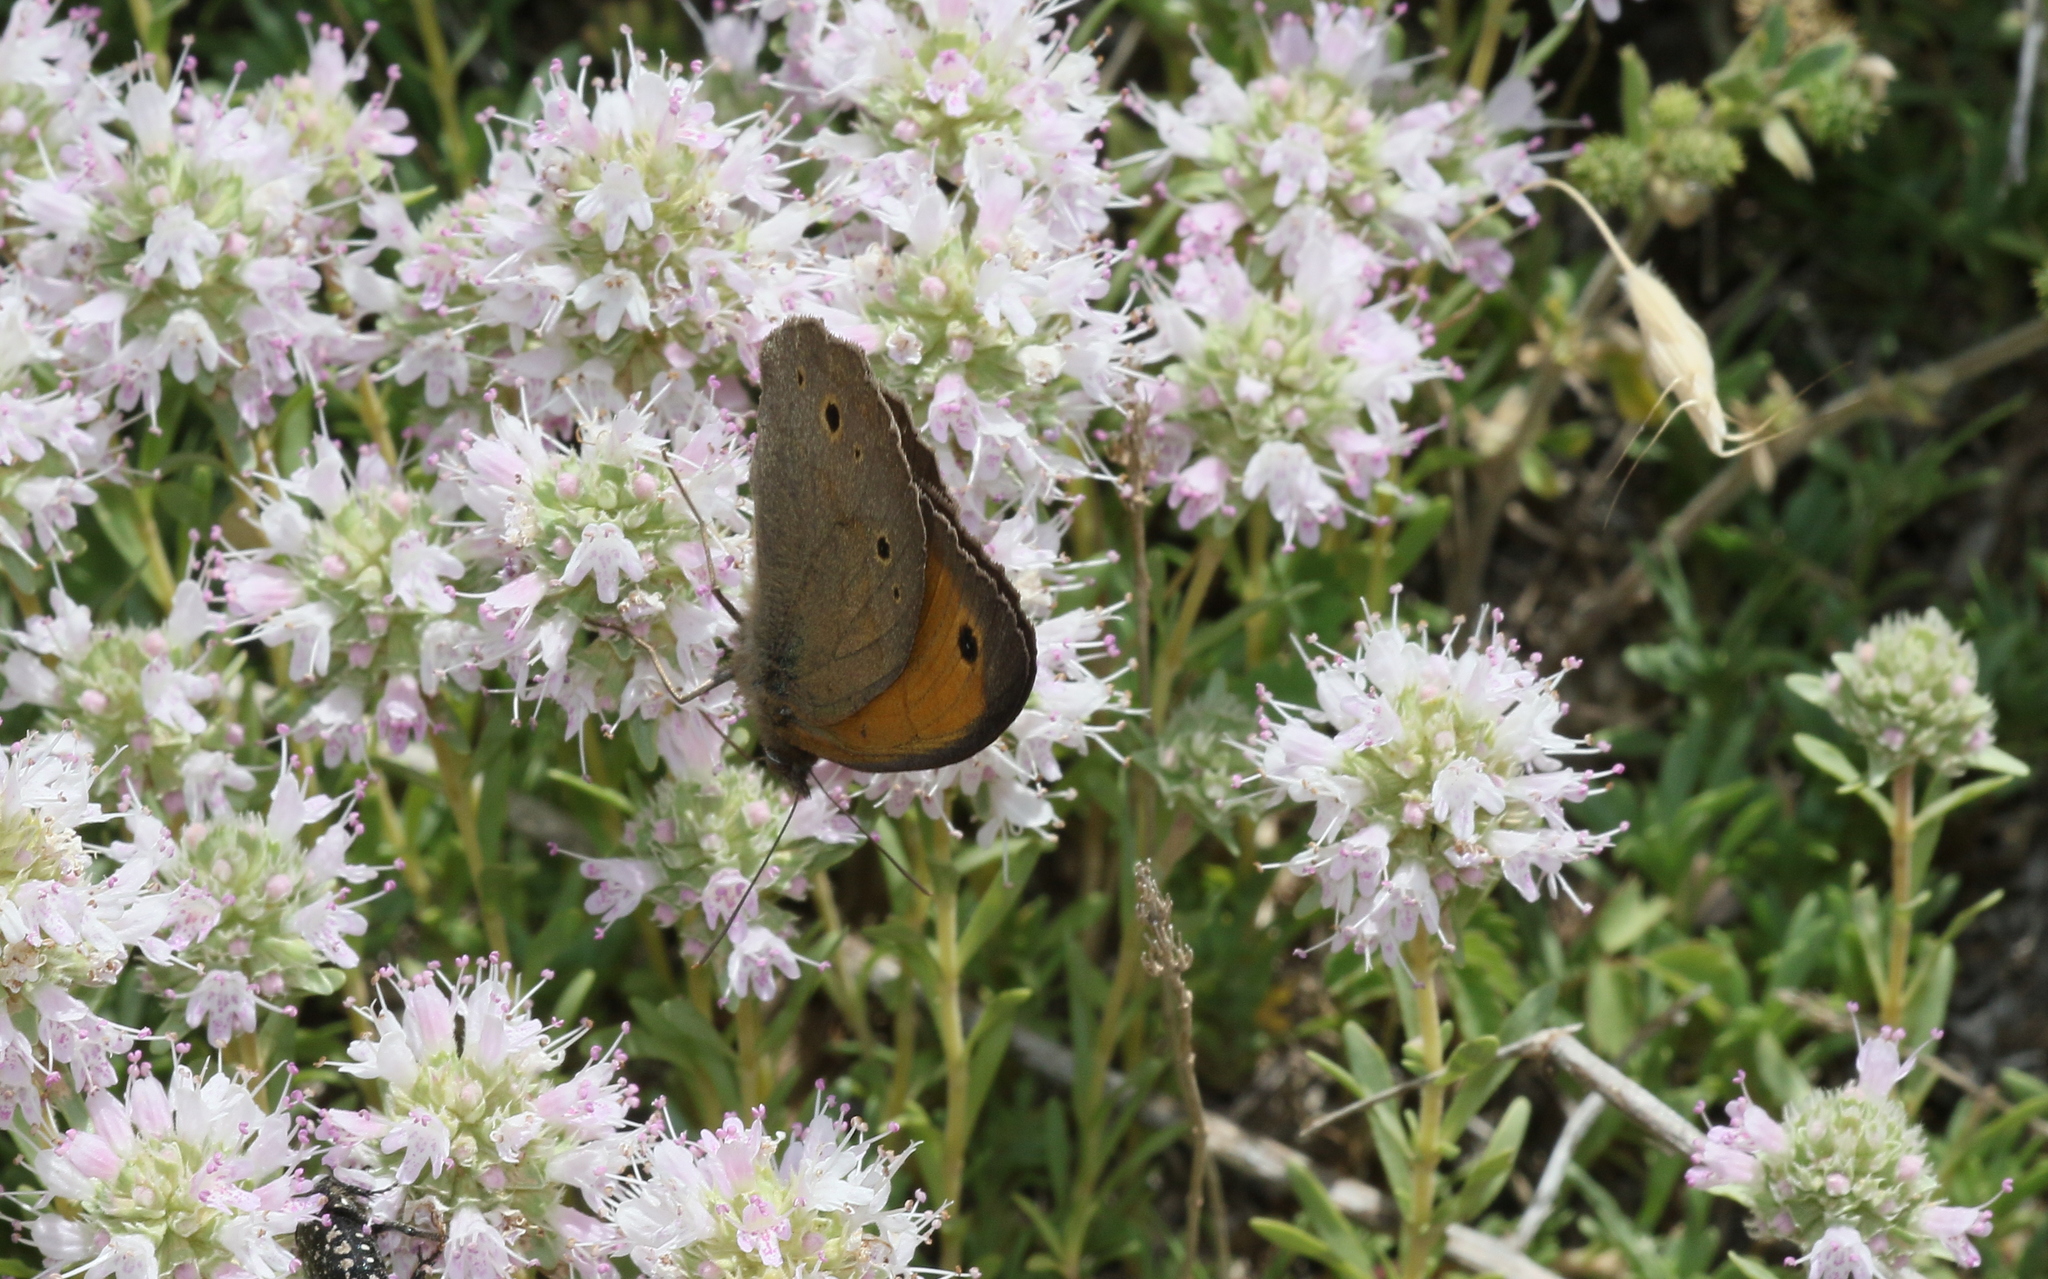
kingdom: Animalia
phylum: Arthropoda
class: Insecta
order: Lepidoptera
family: Nymphalidae
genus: Maniola
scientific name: Maniola jurtina
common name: Meadow brown
